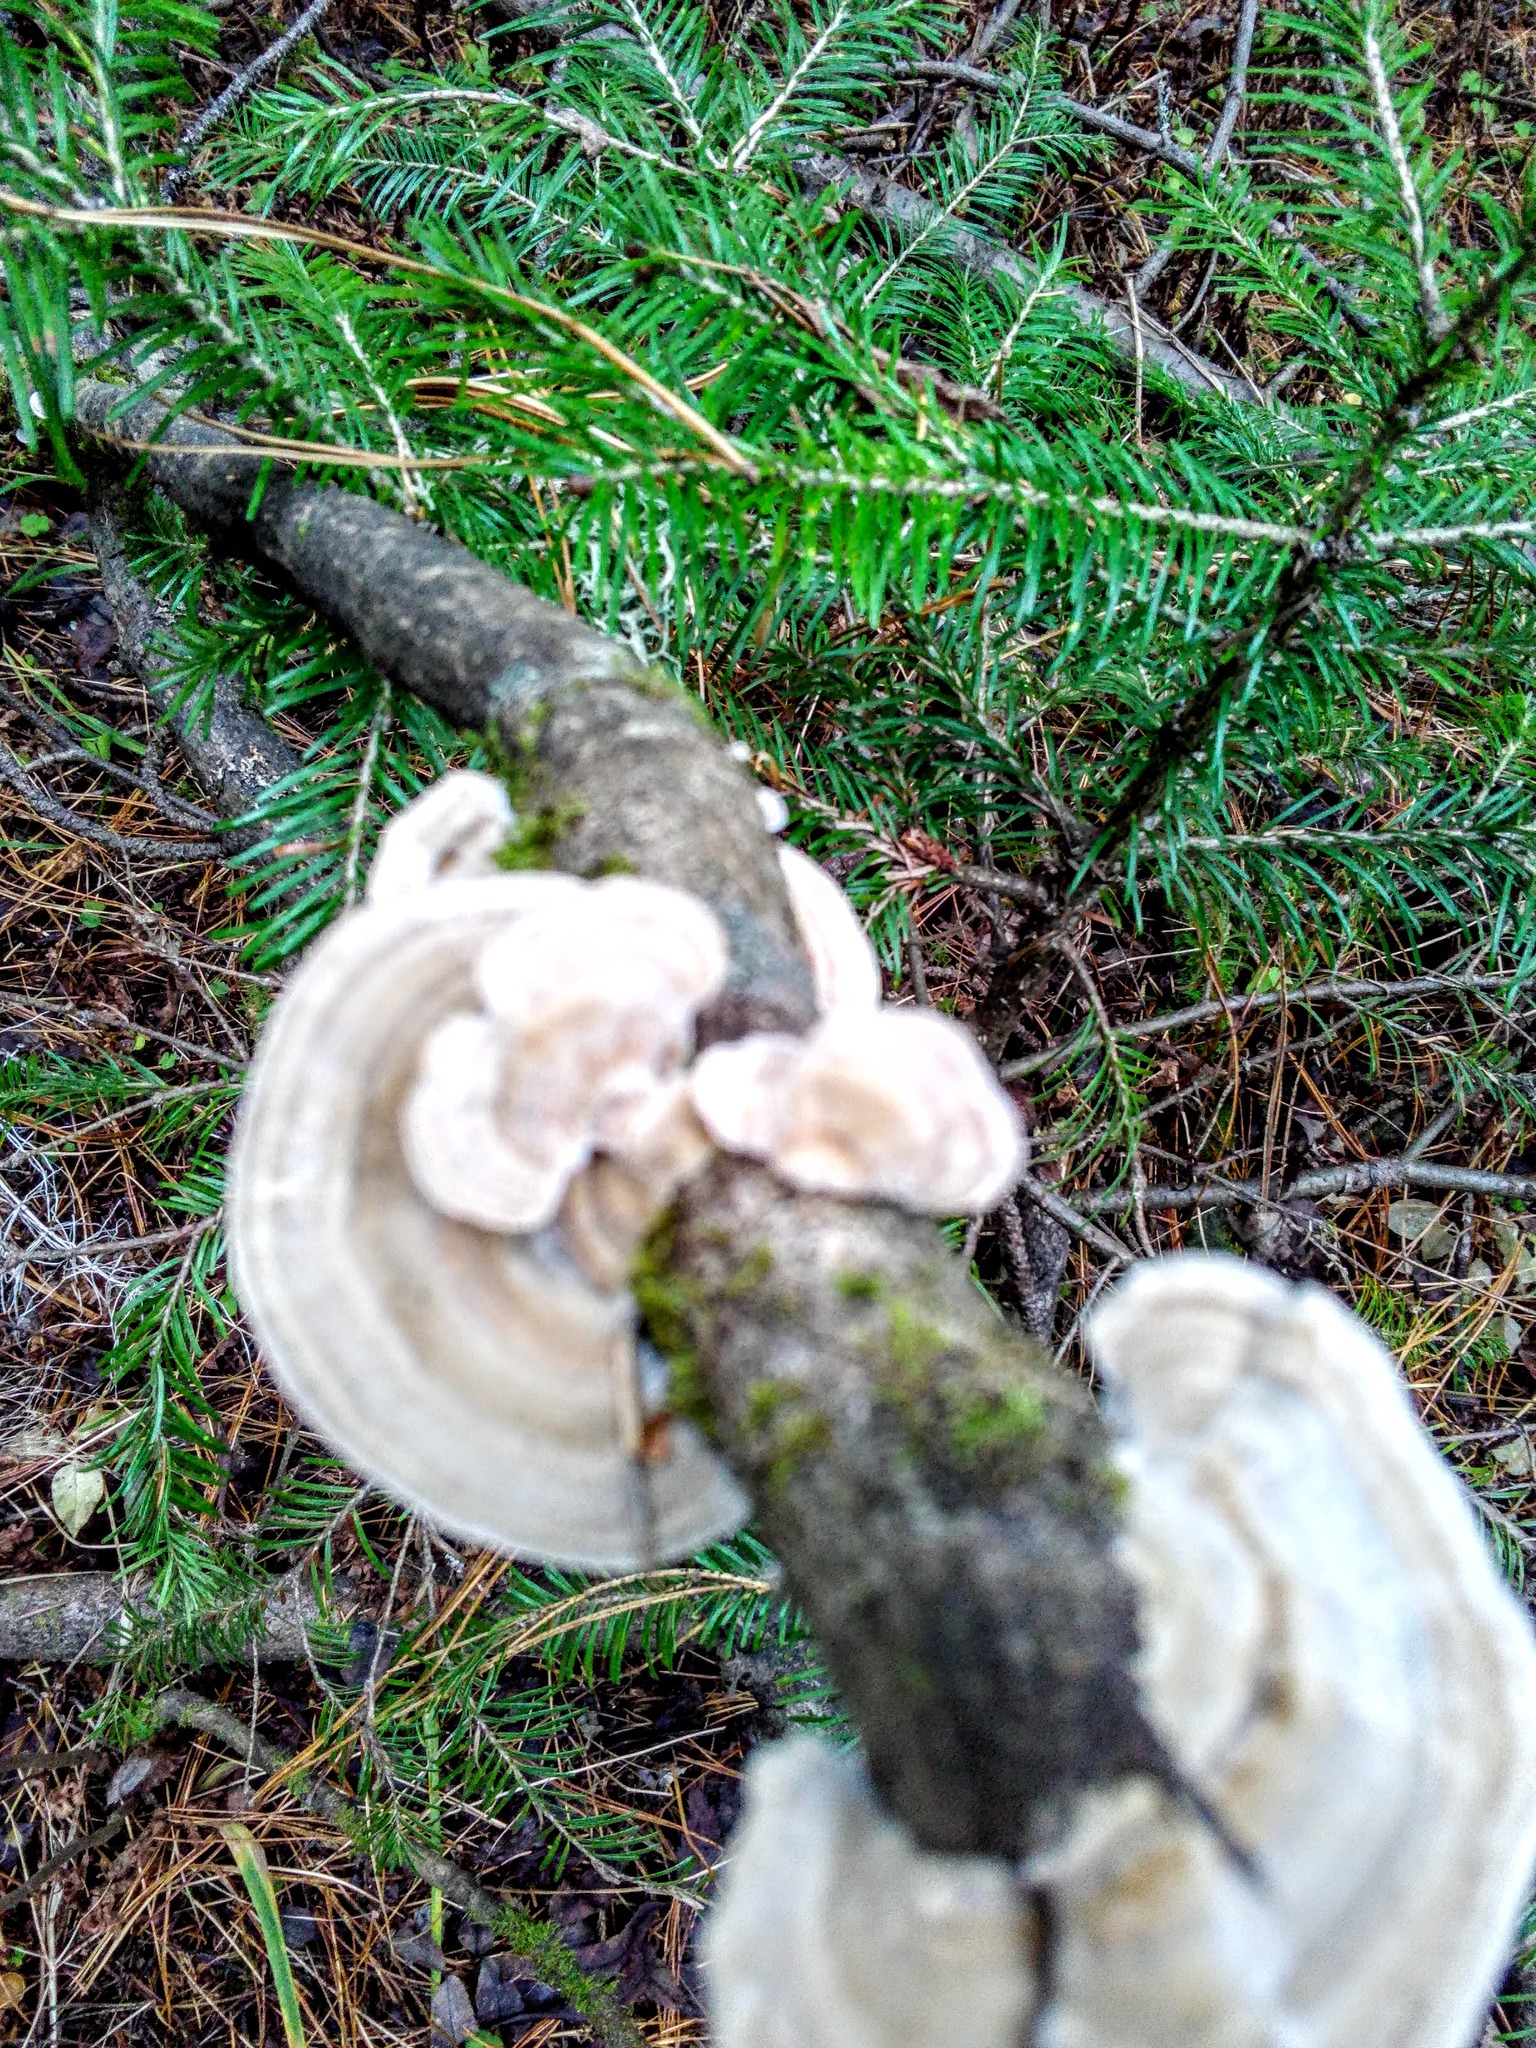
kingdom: Fungi
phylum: Basidiomycota
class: Agaricomycetes
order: Polyporales
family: Polyporaceae
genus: Trametes
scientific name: Trametes hirsuta
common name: Hairy bracket
